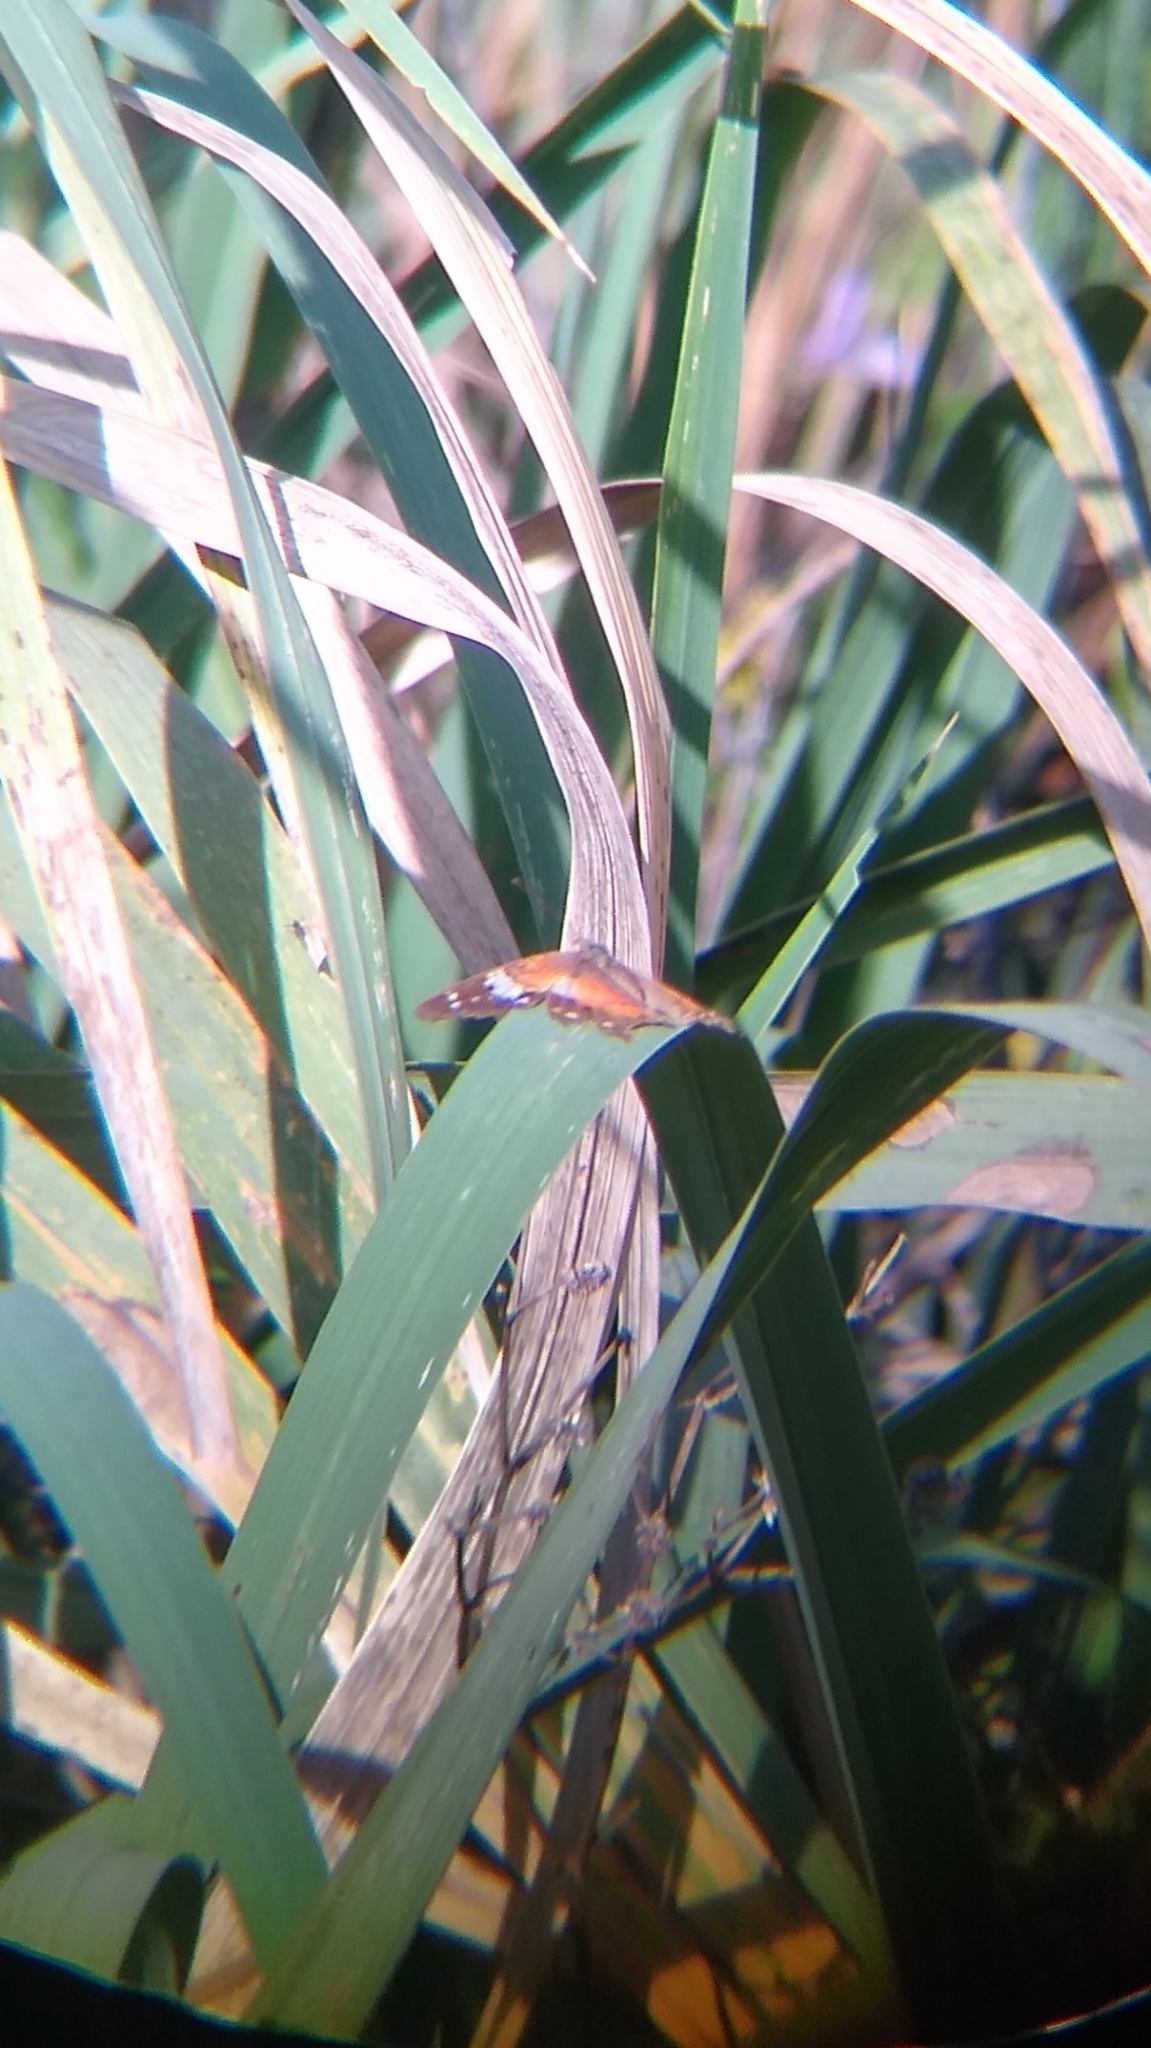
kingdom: Animalia
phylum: Arthropoda
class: Insecta
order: Lepidoptera
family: Nymphalidae
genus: Anartia
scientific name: Anartia amathea
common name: Red peacock
